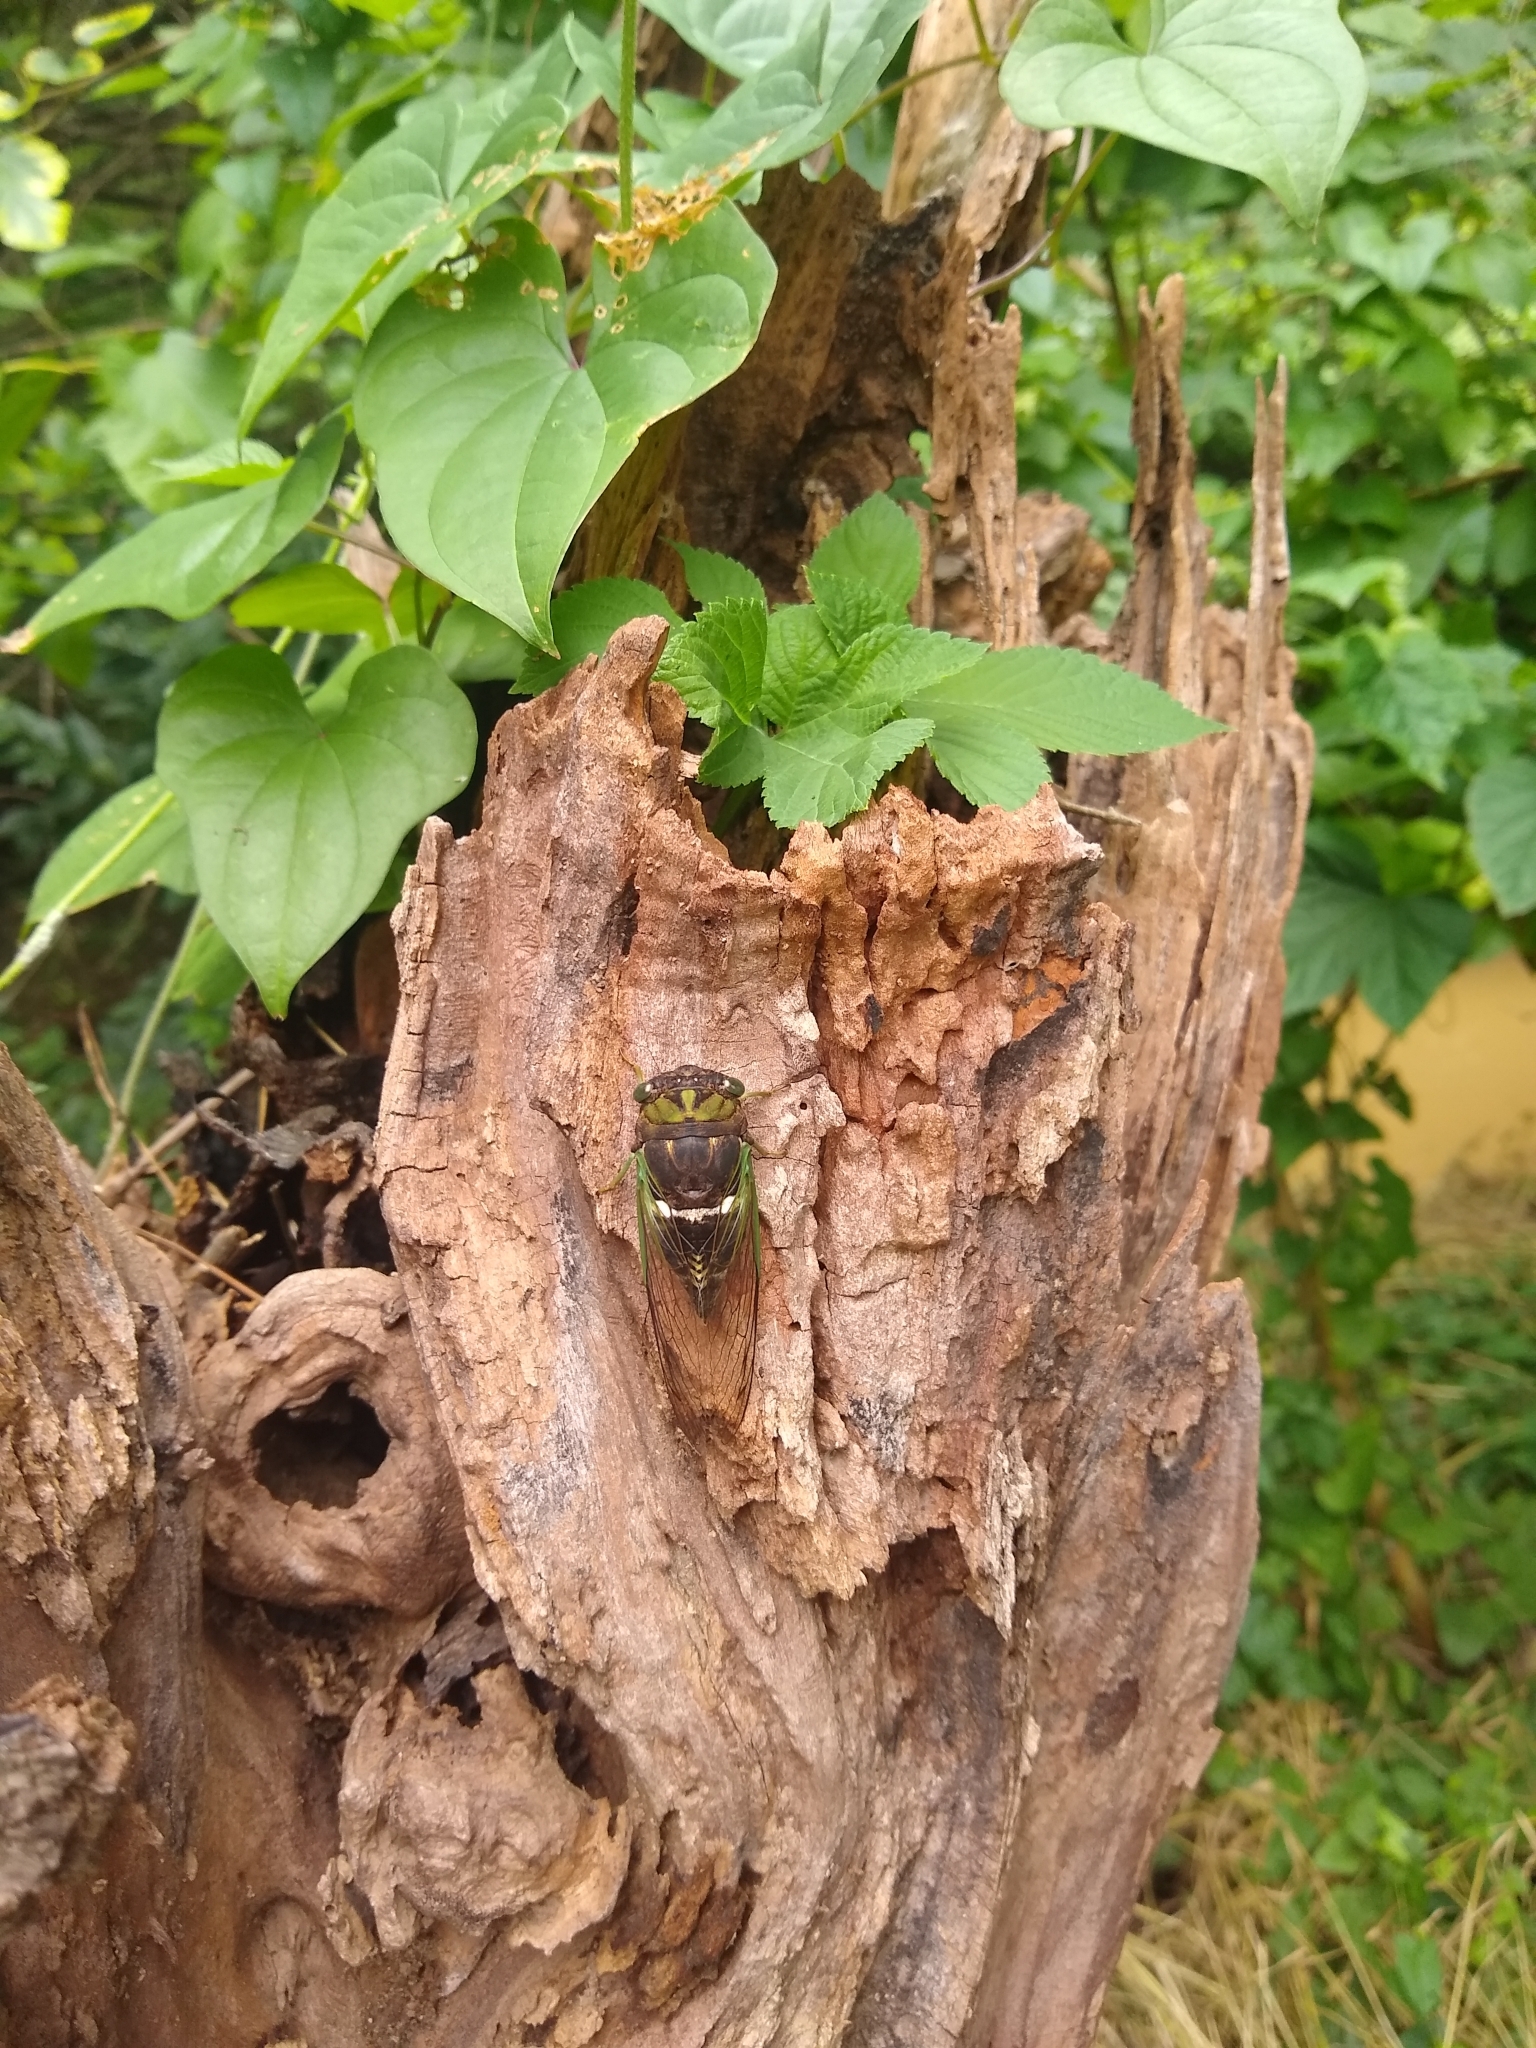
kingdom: Animalia
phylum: Arthropoda
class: Insecta
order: Hemiptera
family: Cicadidae
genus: Neotibicen
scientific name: Neotibicen tibicen
